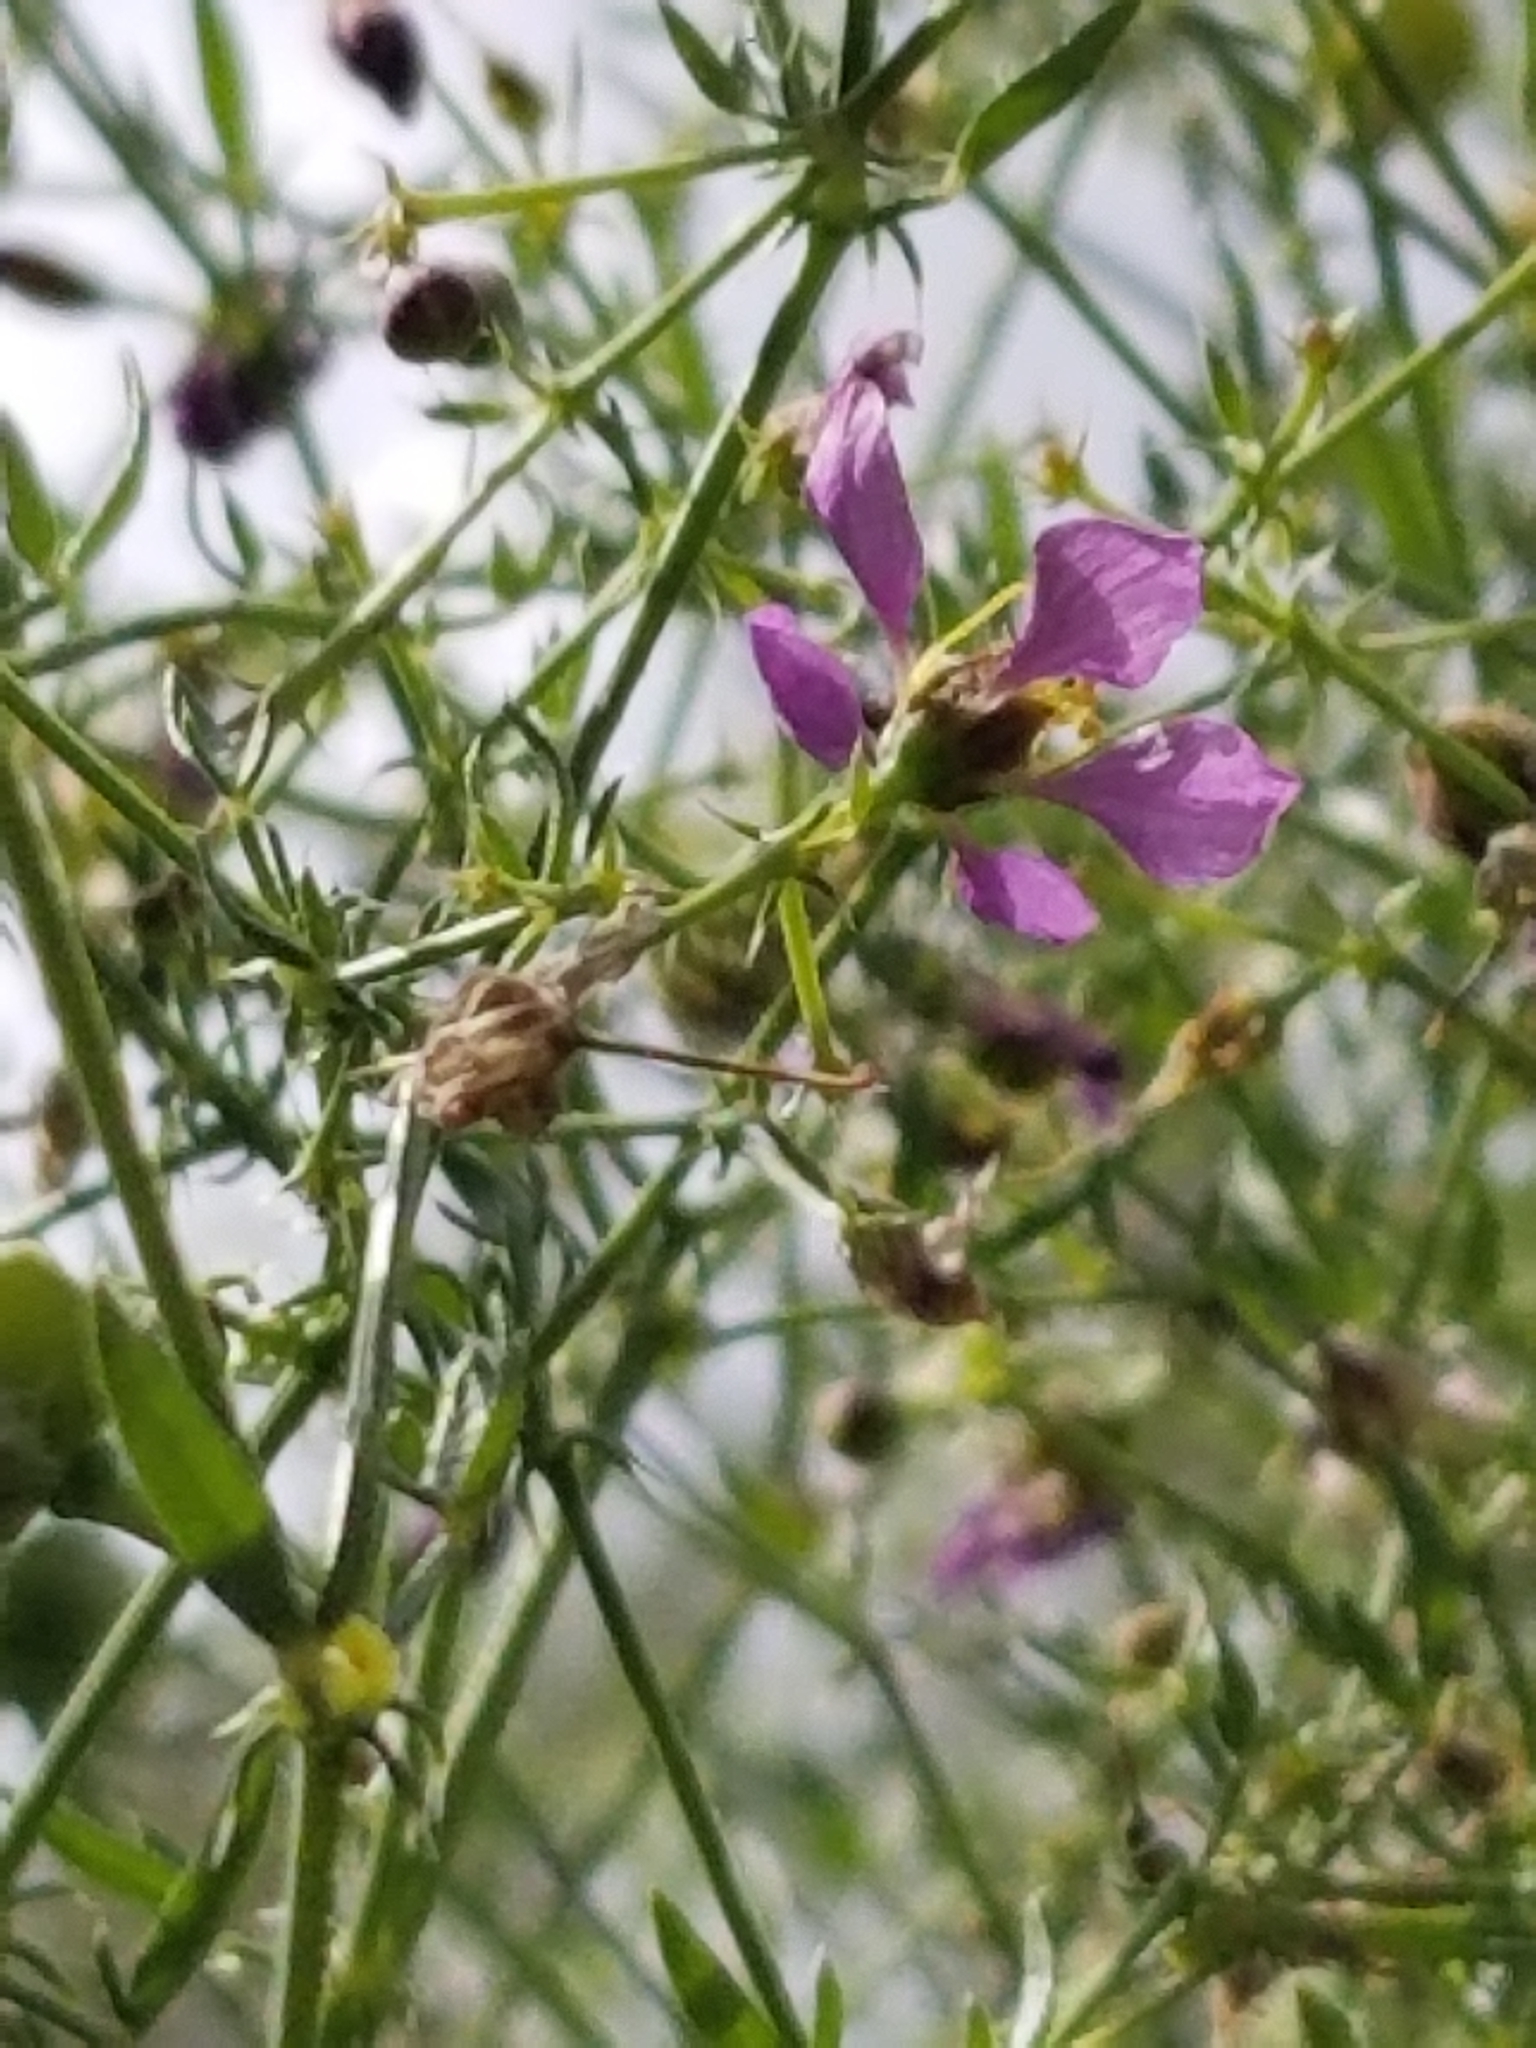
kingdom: Plantae
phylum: Tracheophyta
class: Magnoliopsida
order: Zygophyllales
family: Zygophyllaceae
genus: Fagonia
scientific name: Fagonia laevis
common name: California fagonbush
